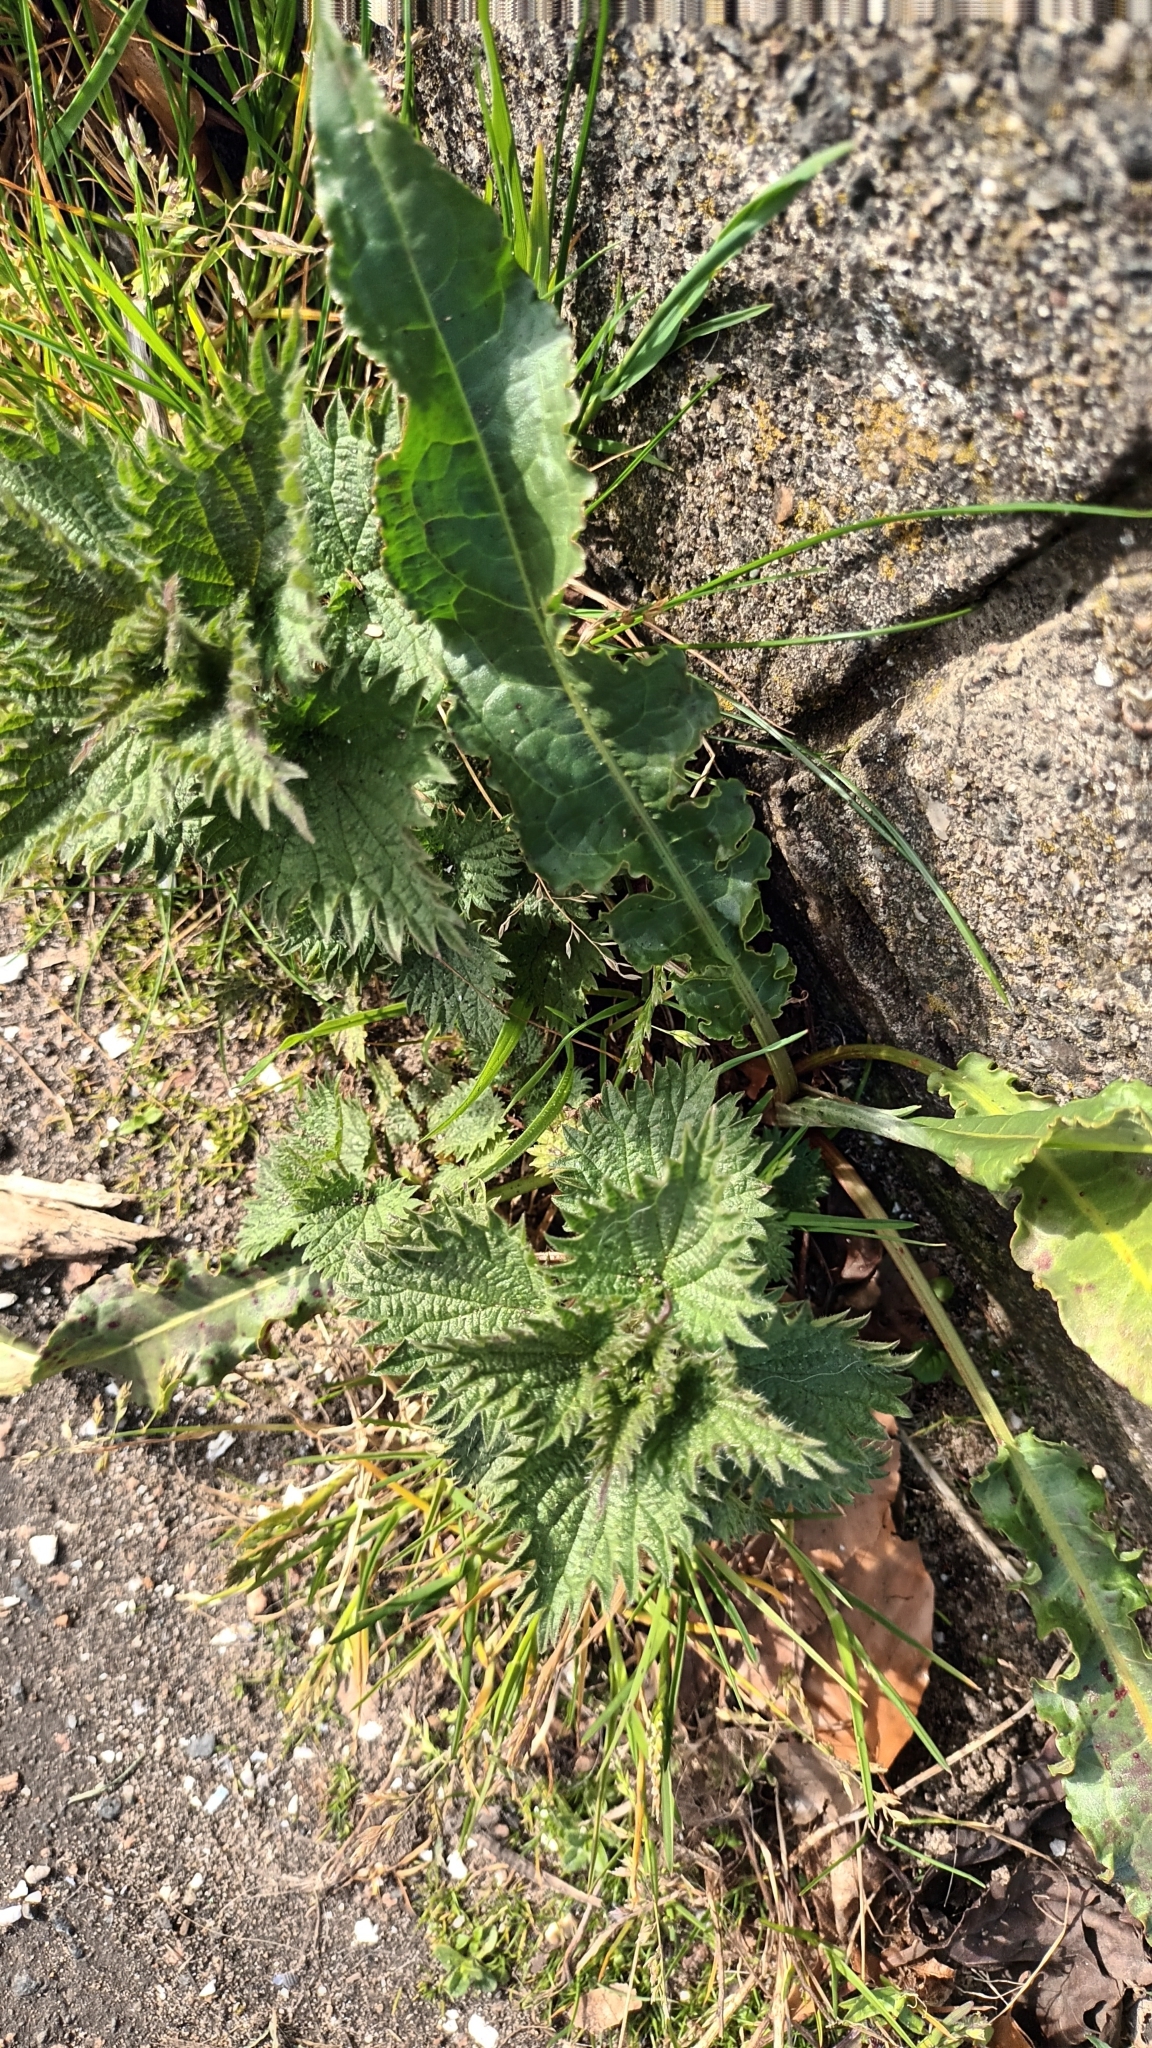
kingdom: Plantae
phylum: Tracheophyta
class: Magnoliopsida
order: Rosales
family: Urticaceae
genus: Urtica
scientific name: Urtica dioica
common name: Common nettle
